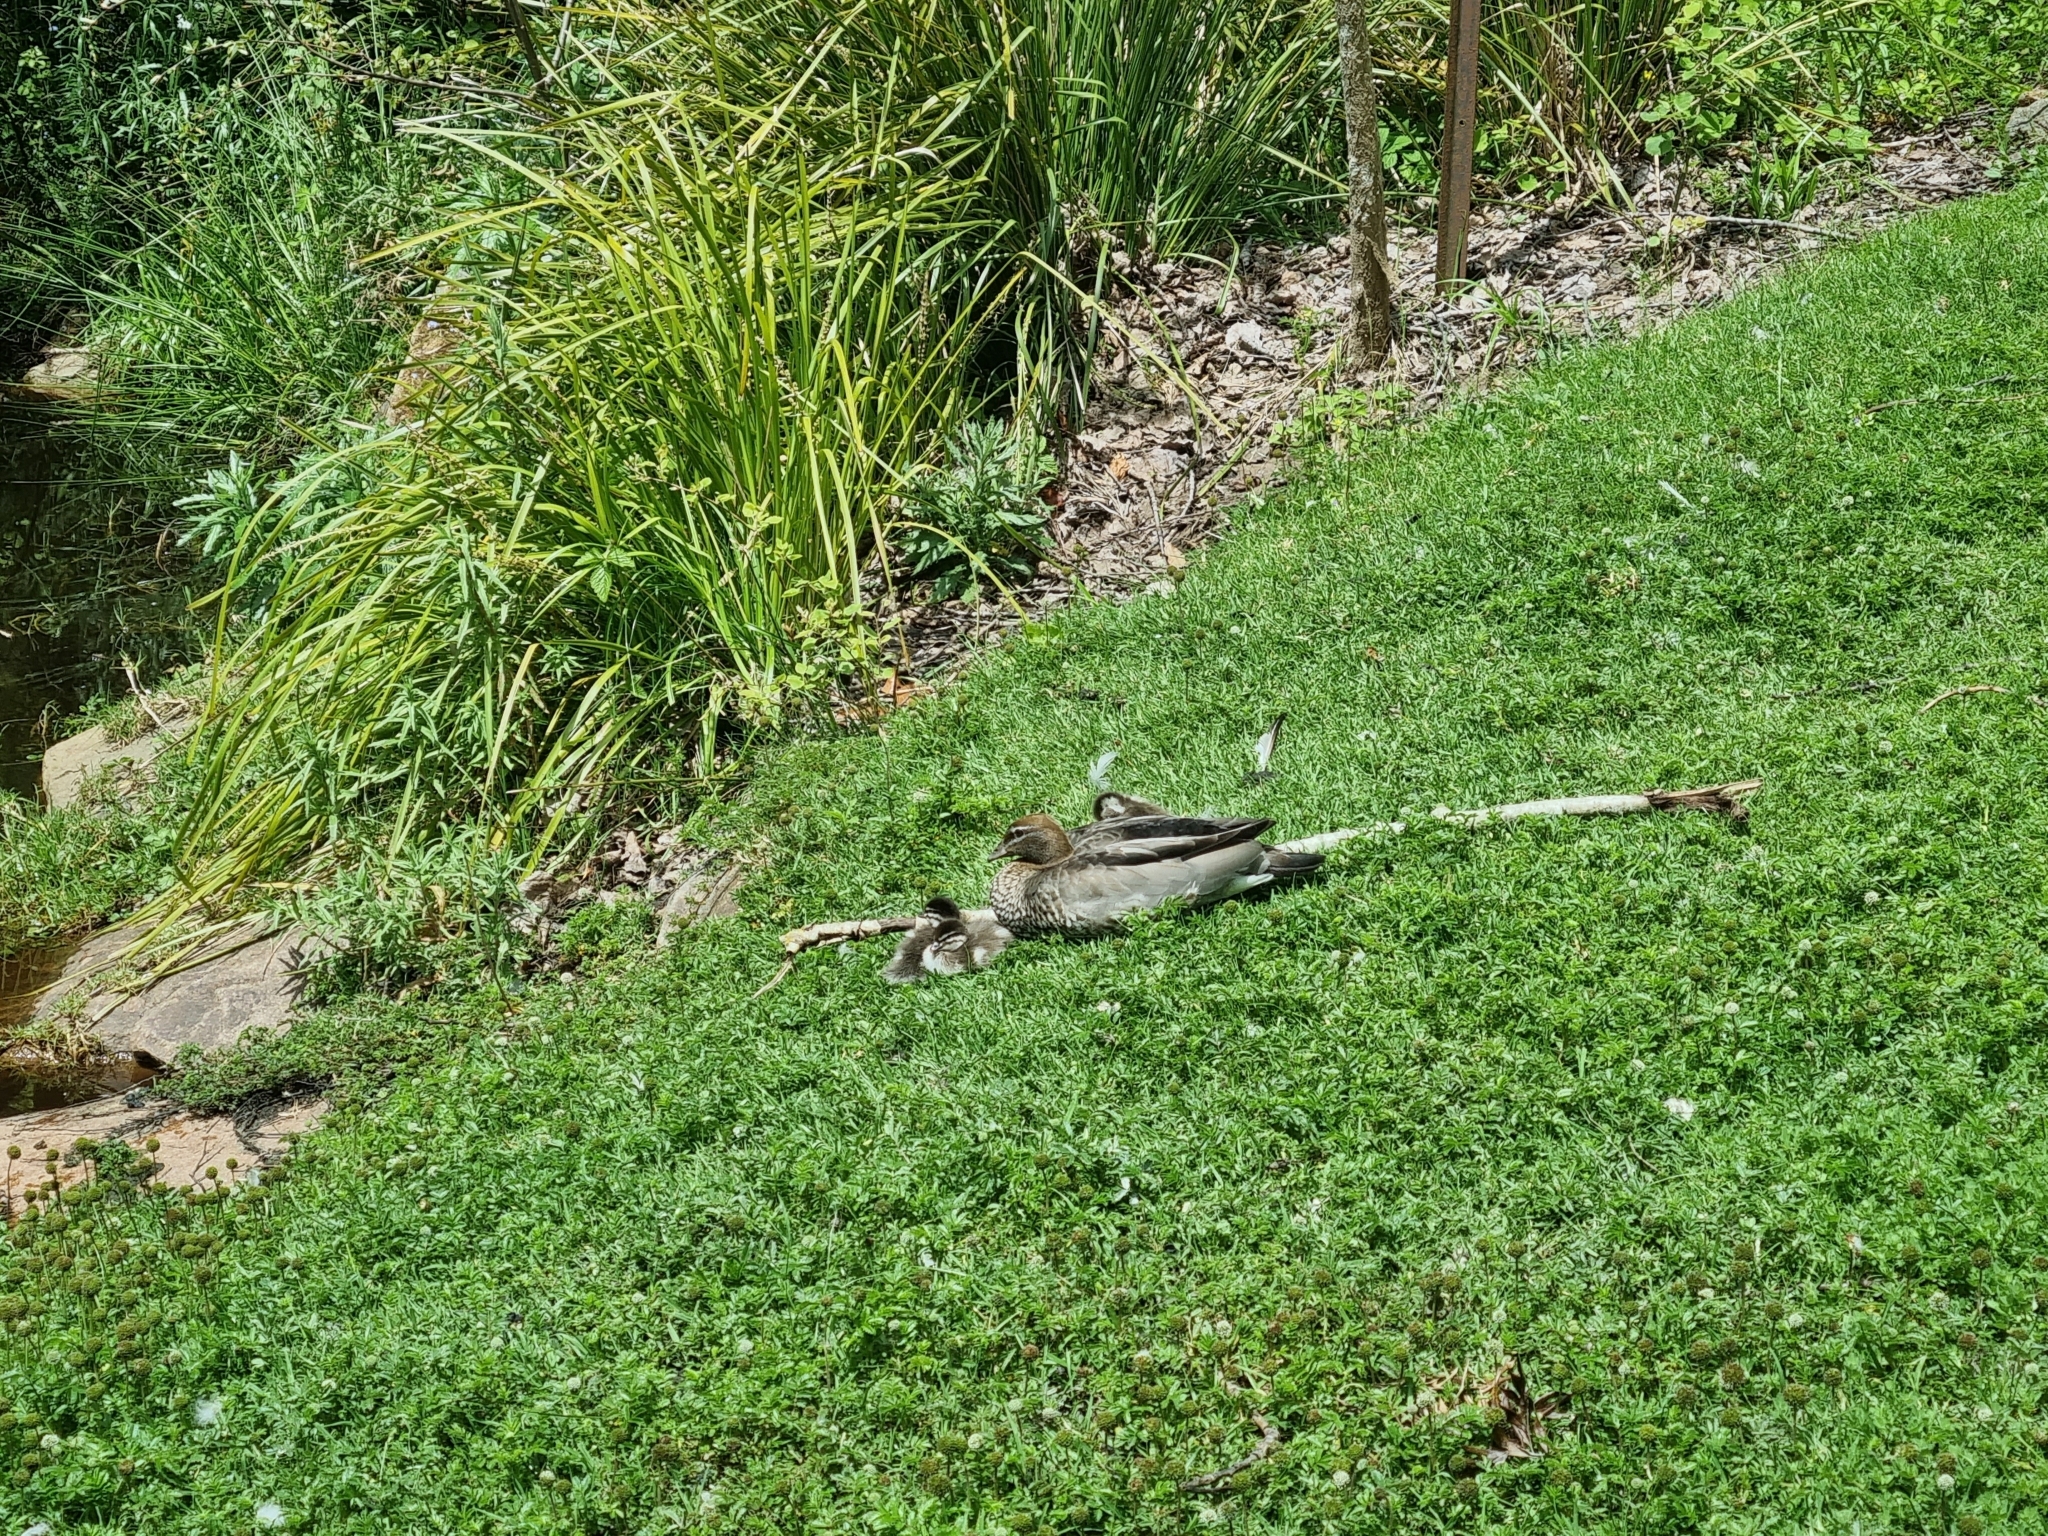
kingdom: Animalia
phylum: Chordata
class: Aves
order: Anseriformes
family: Anatidae
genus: Chenonetta
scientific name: Chenonetta jubata
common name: Maned duck
